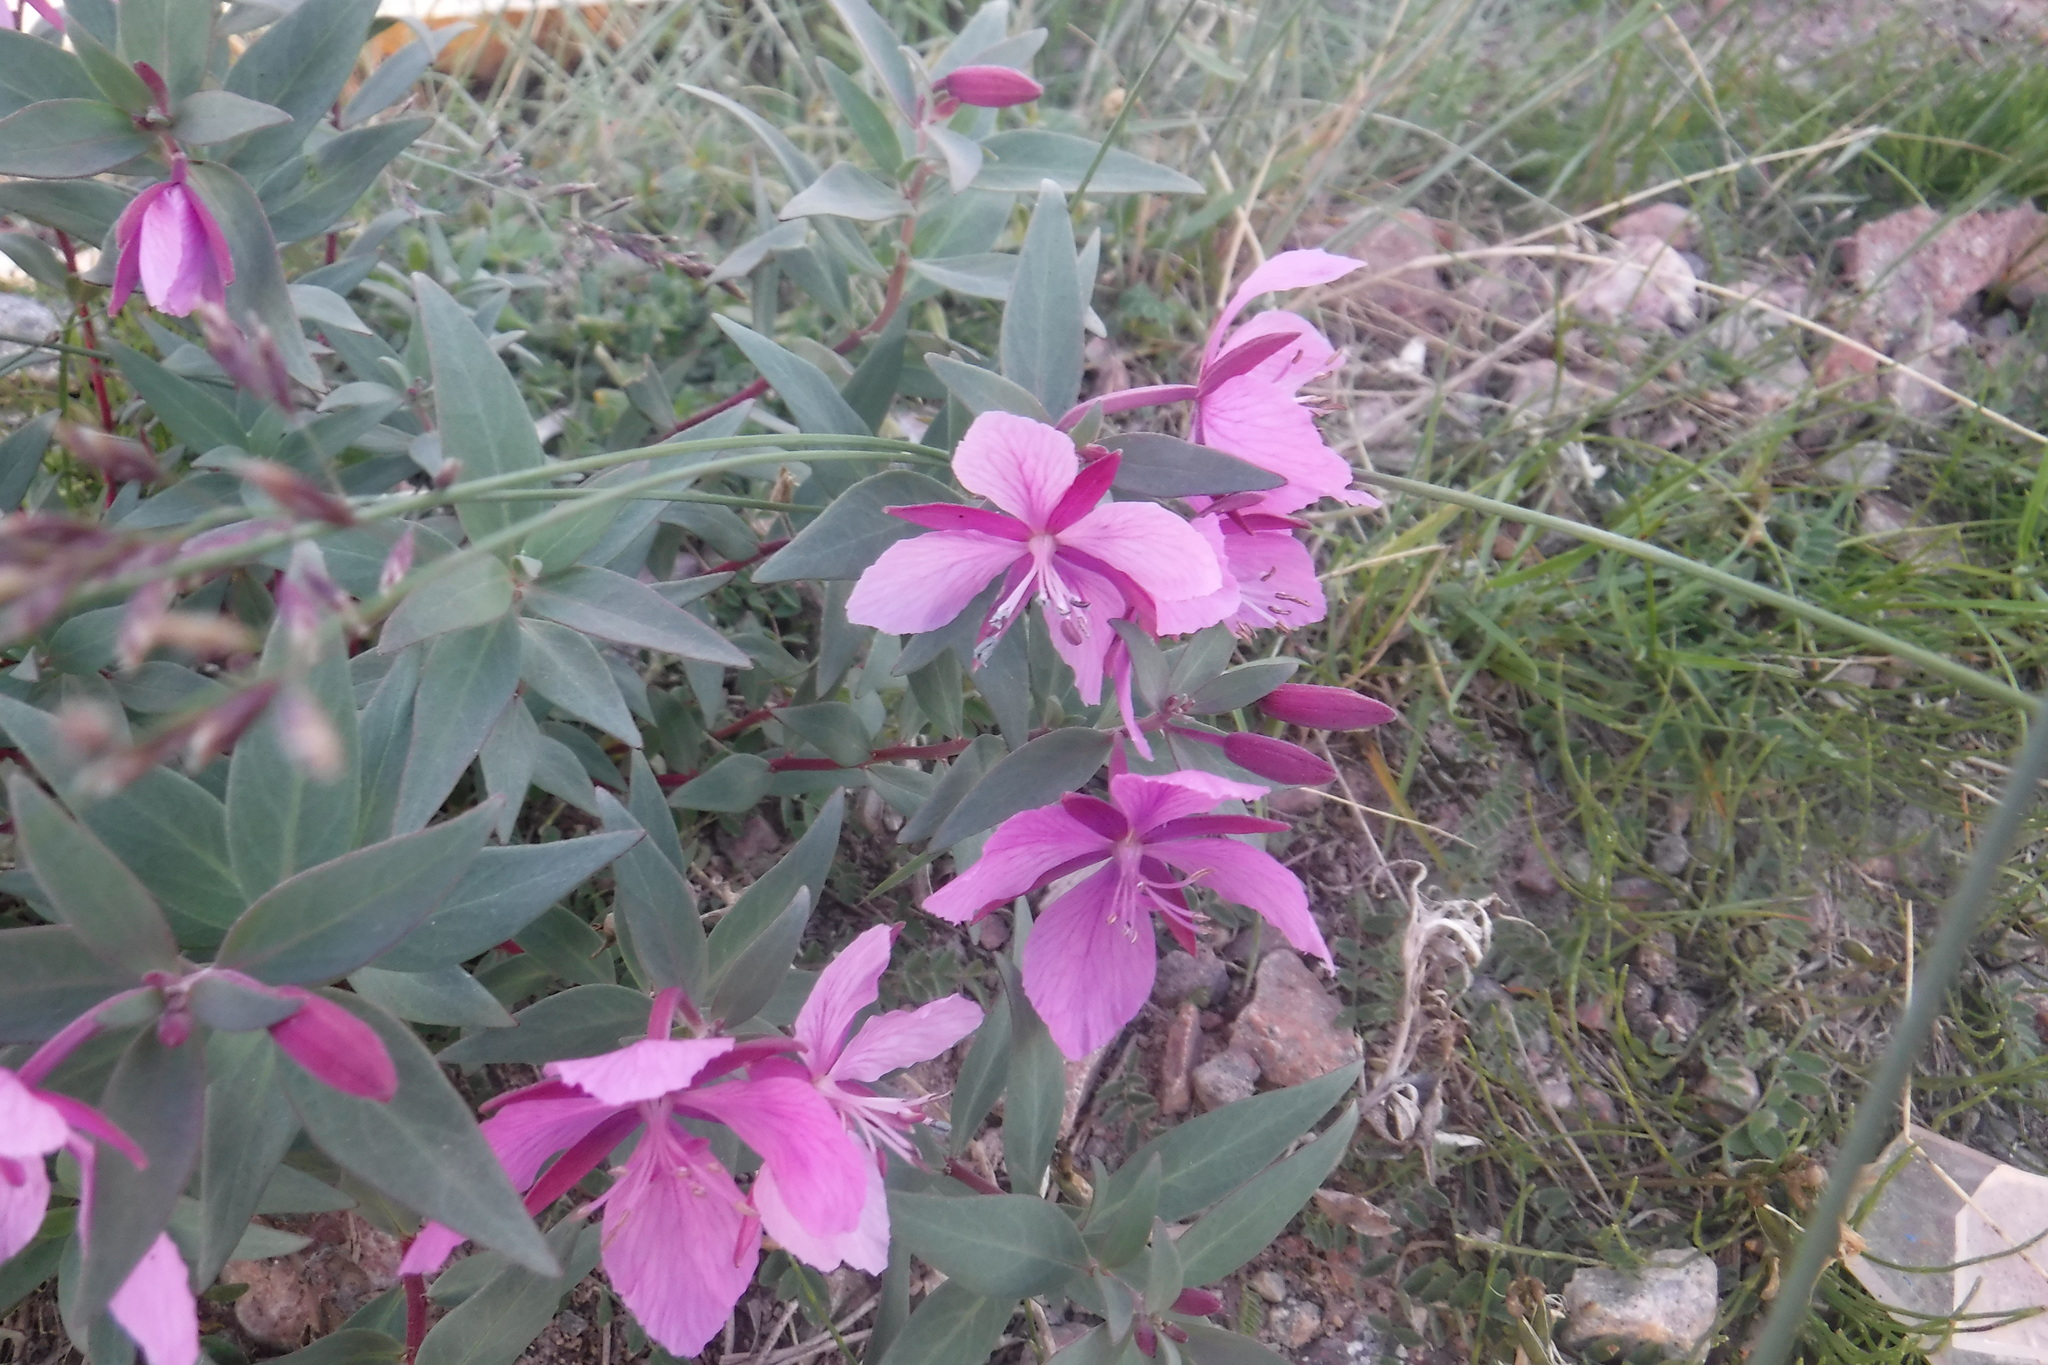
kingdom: Plantae
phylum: Tracheophyta
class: Magnoliopsida
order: Myrtales
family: Onagraceae
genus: Chamaenerion
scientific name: Chamaenerion latifolium
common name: Dwarf fireweed
